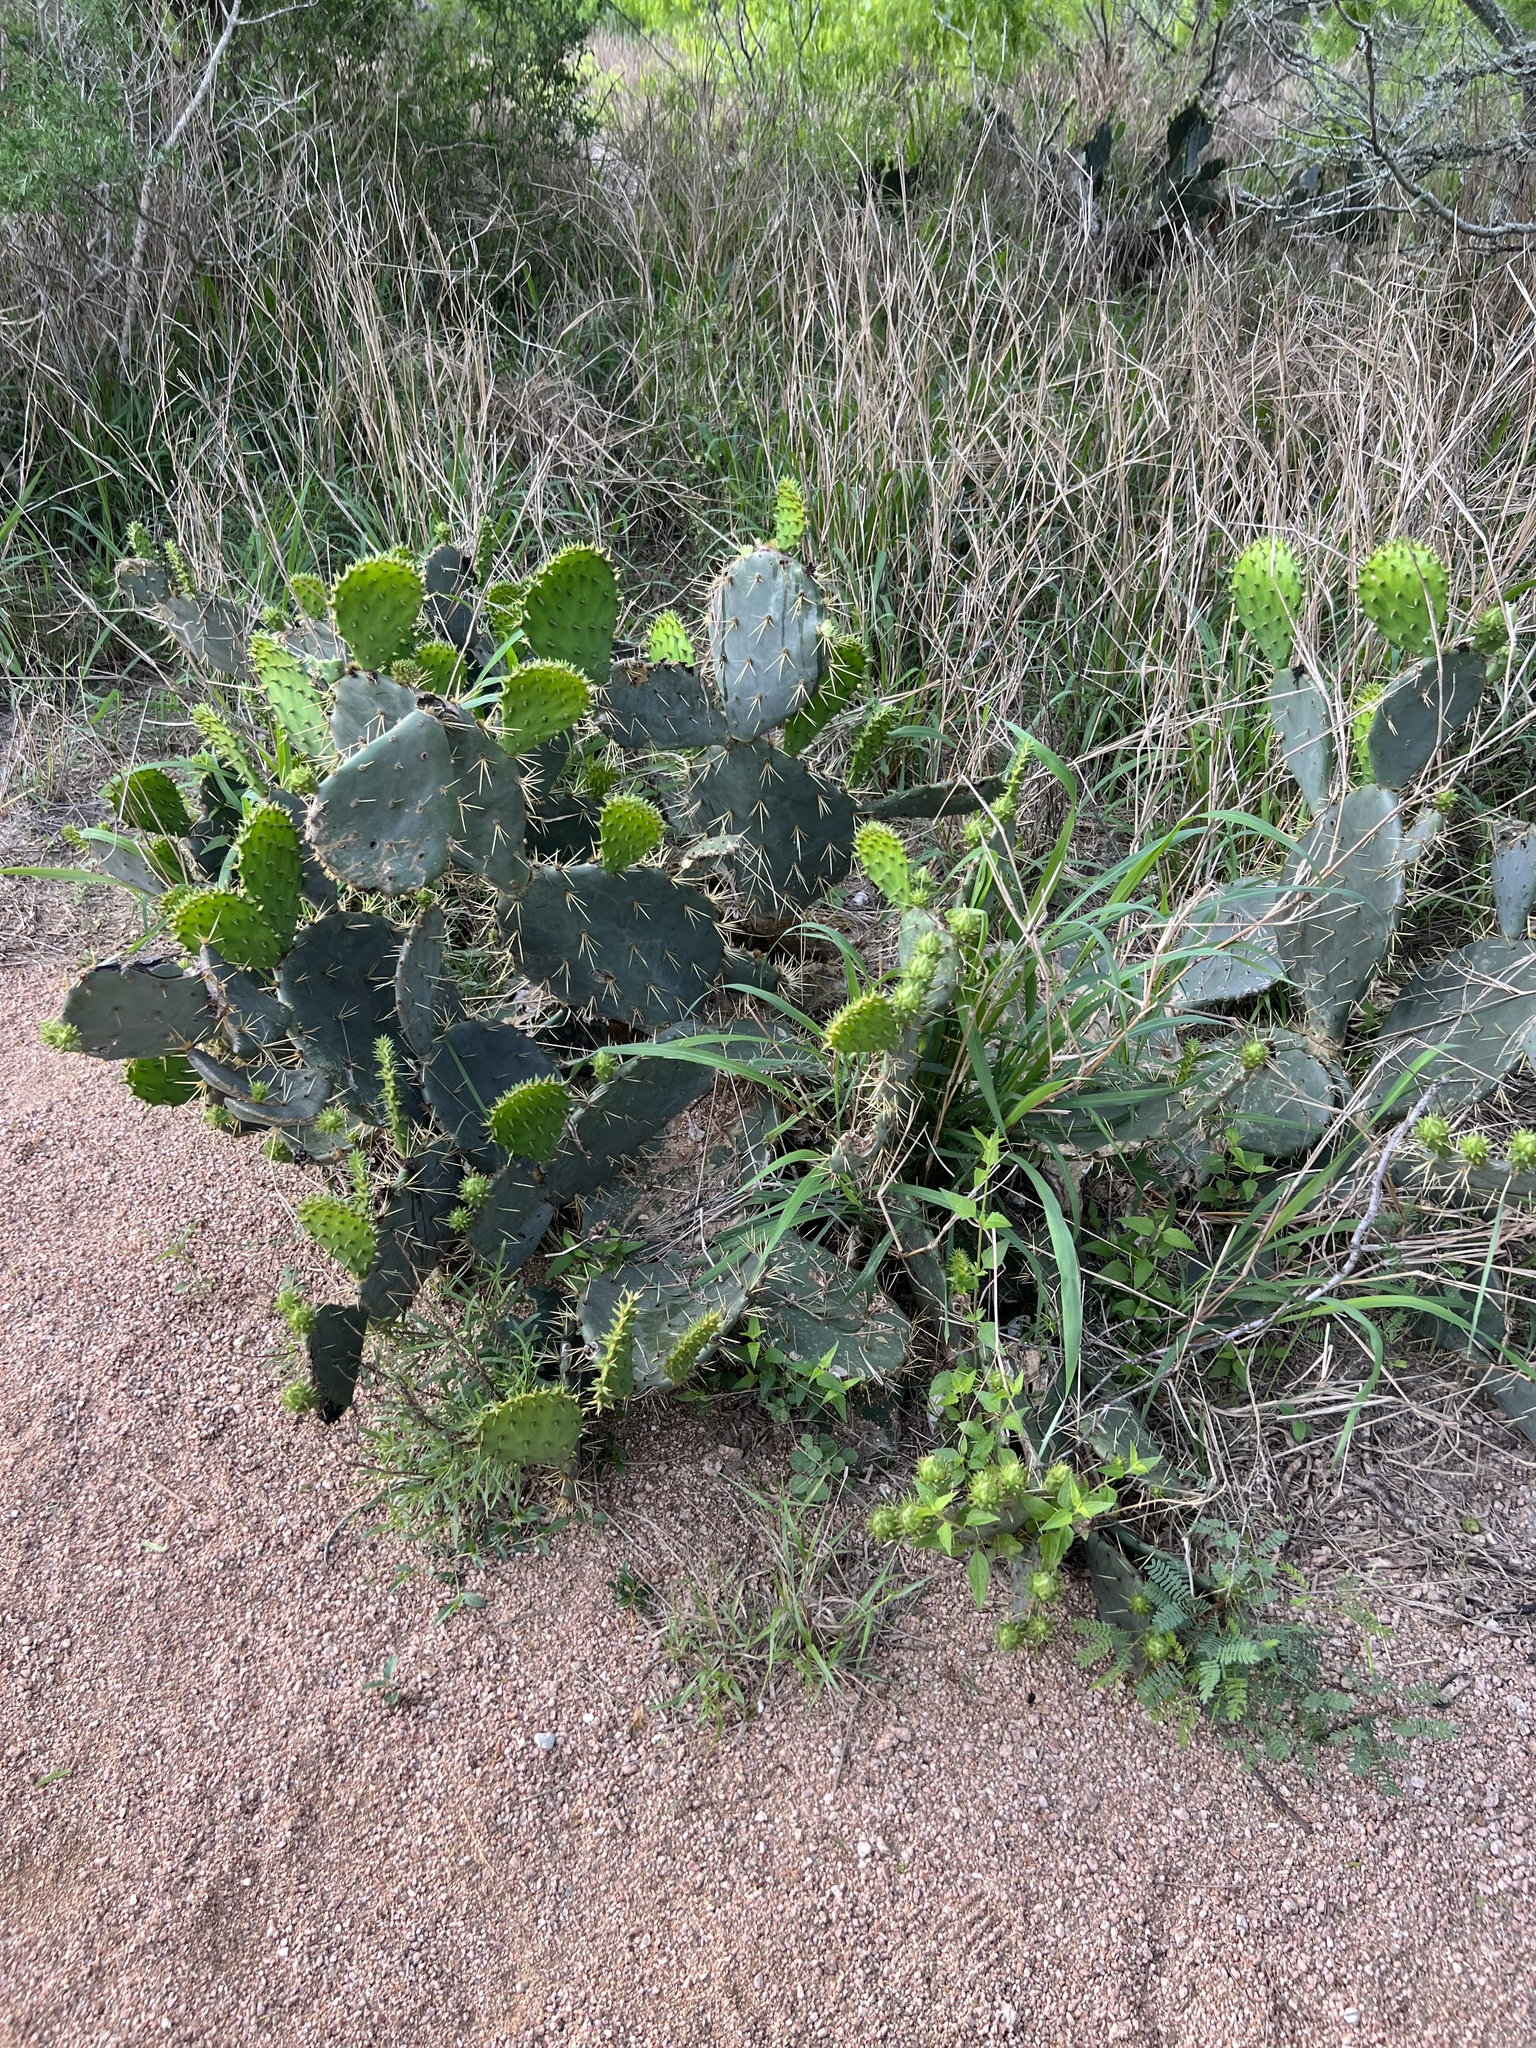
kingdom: Plantae
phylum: Tracheophyta
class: Magnoliopsida
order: Caryophyllales
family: Cactaceae
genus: Opuntia
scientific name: Opuntia engelmannii
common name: Cactus-apple
